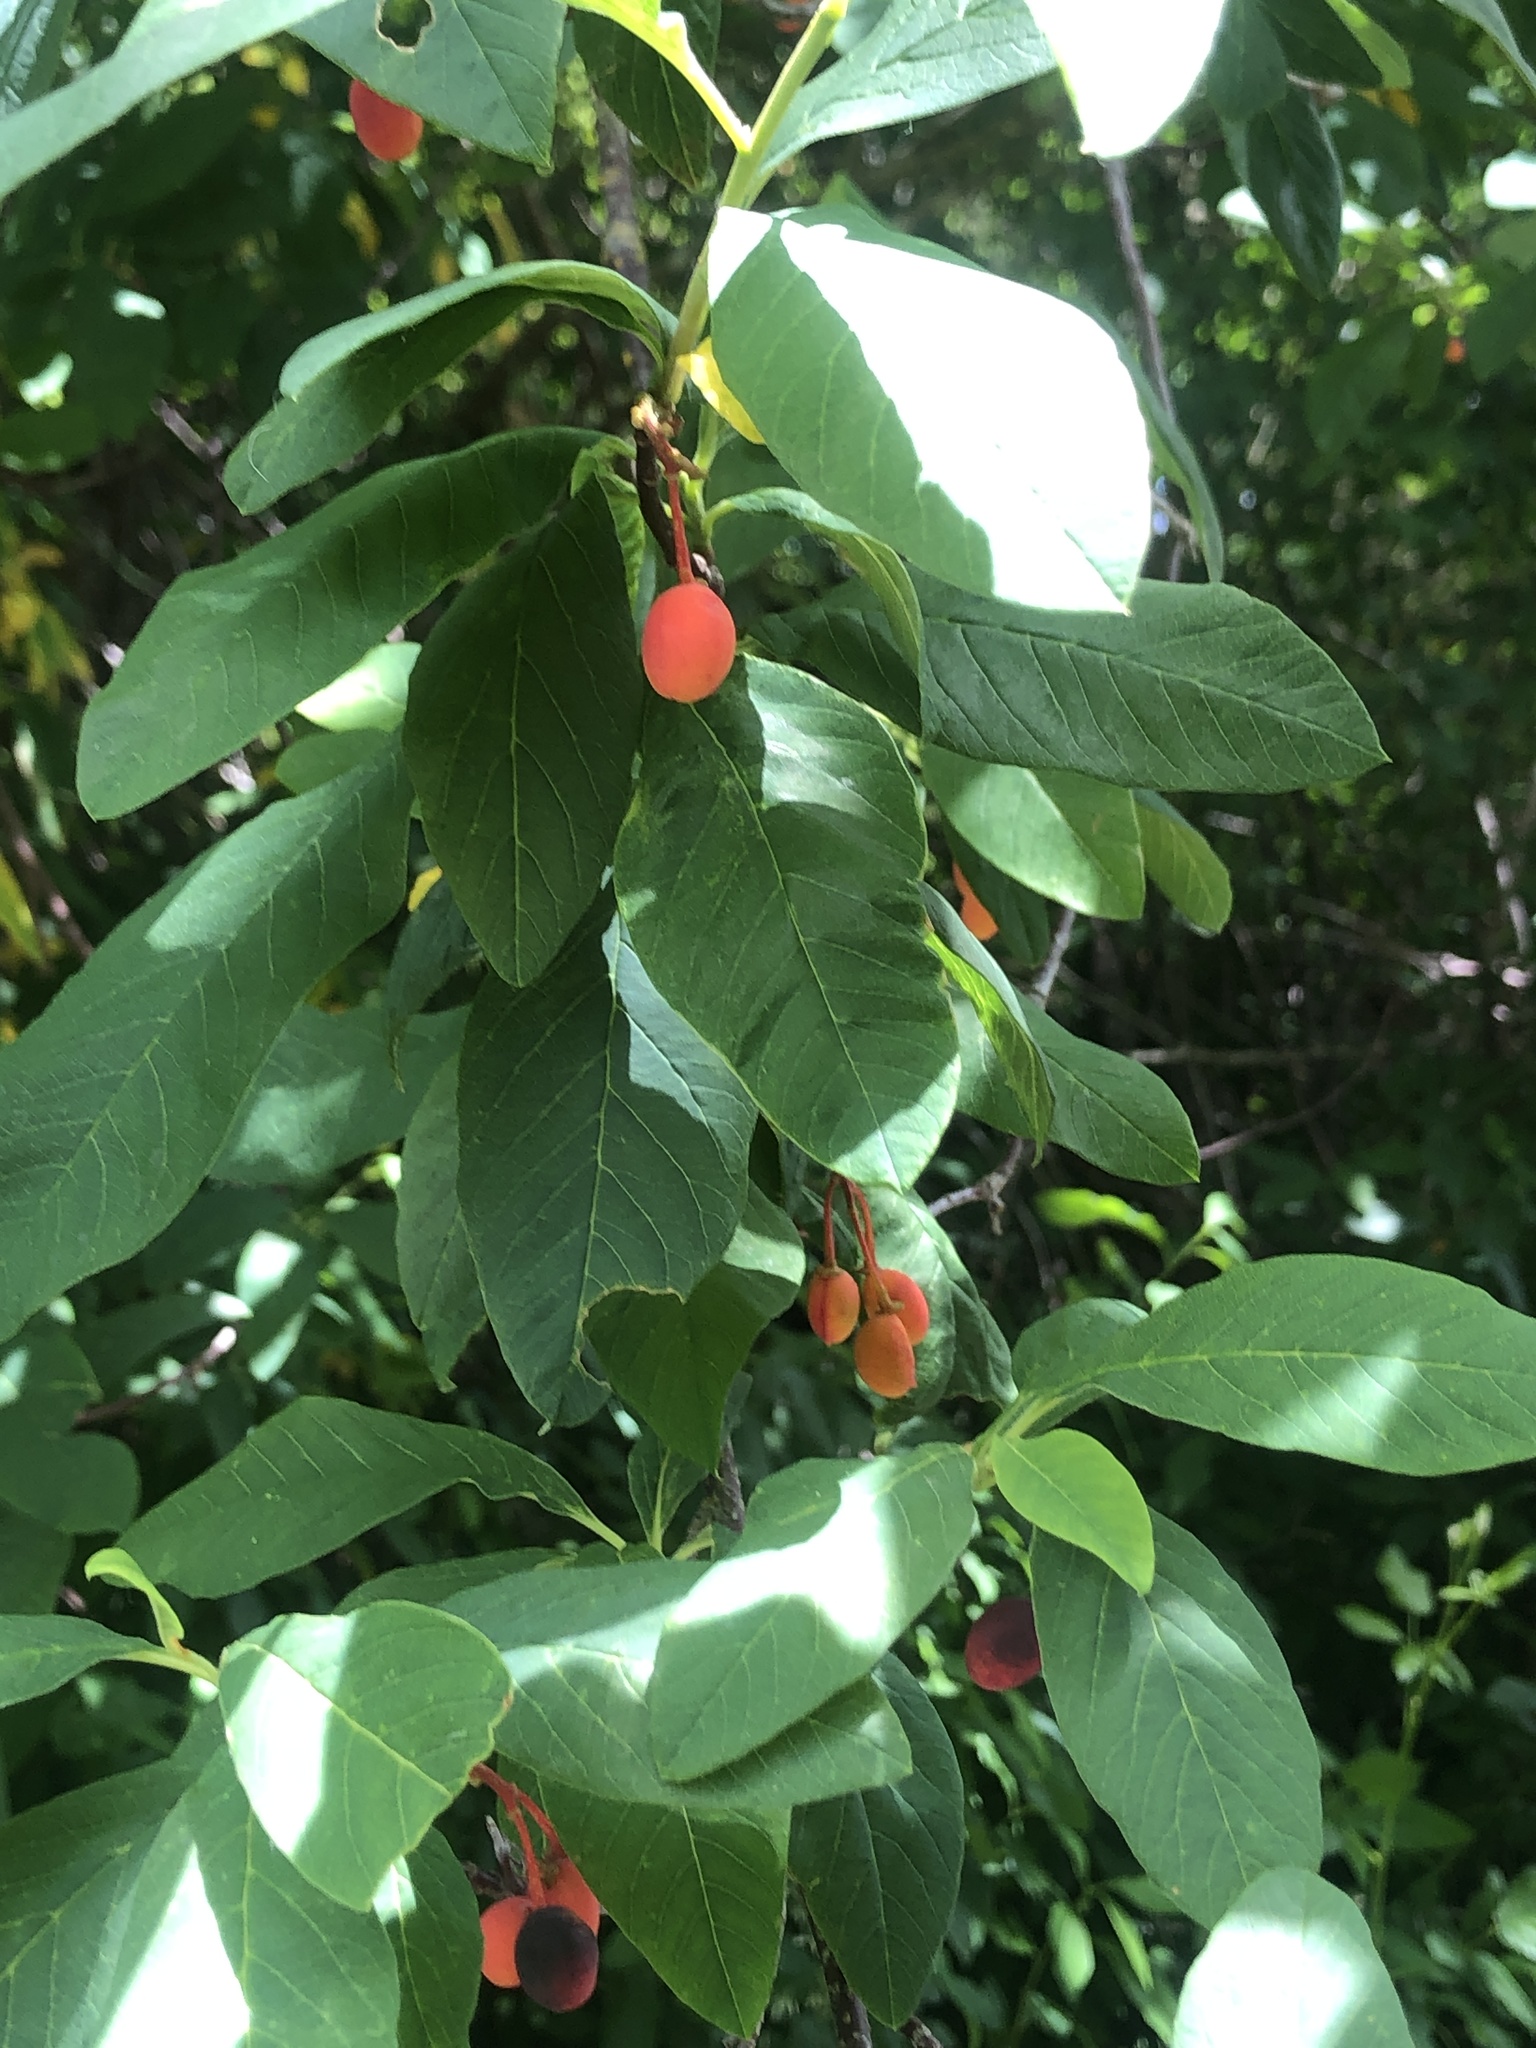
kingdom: Plantae
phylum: Tracheophyta
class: Magnoliopsida
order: Rosales
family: Rosaceae
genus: Oemleria
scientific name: Oemleria cerasiformis
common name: Osoberry
